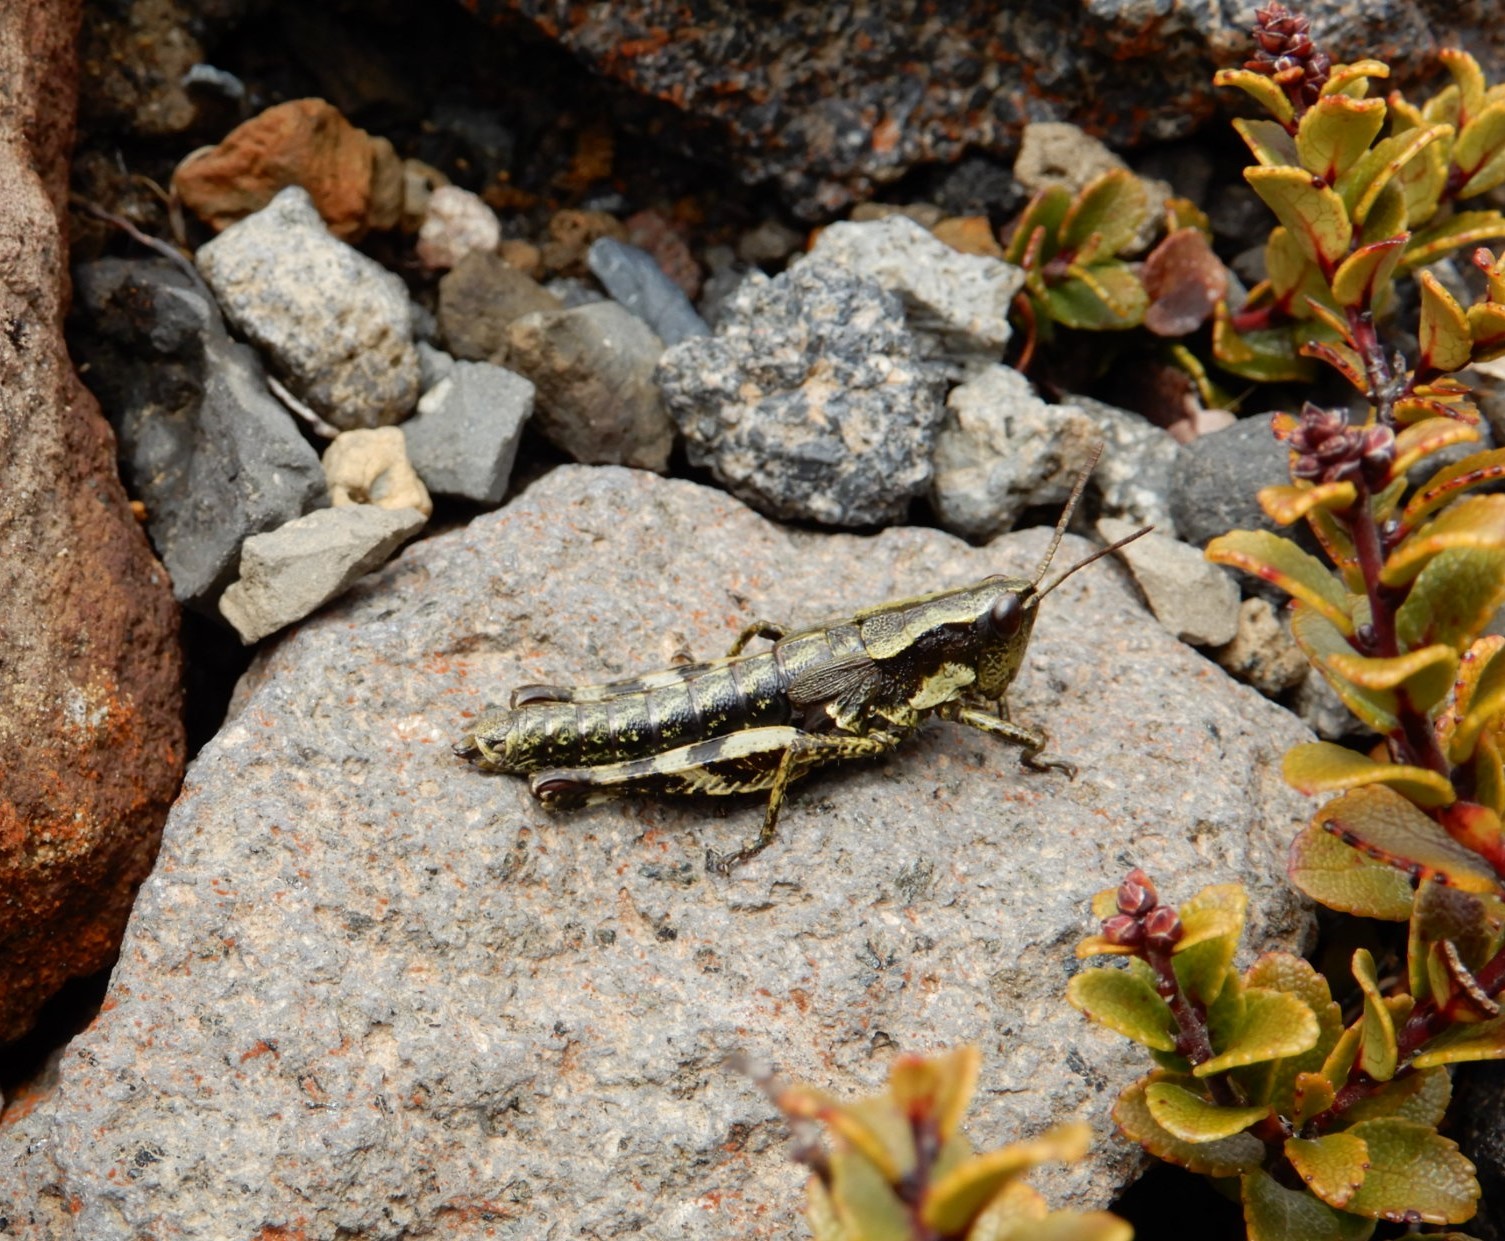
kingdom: Animalia
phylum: Arthropoda
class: Insecta
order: Orthoptera
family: Acrididae
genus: Sigaus
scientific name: Sigaus piliferus
